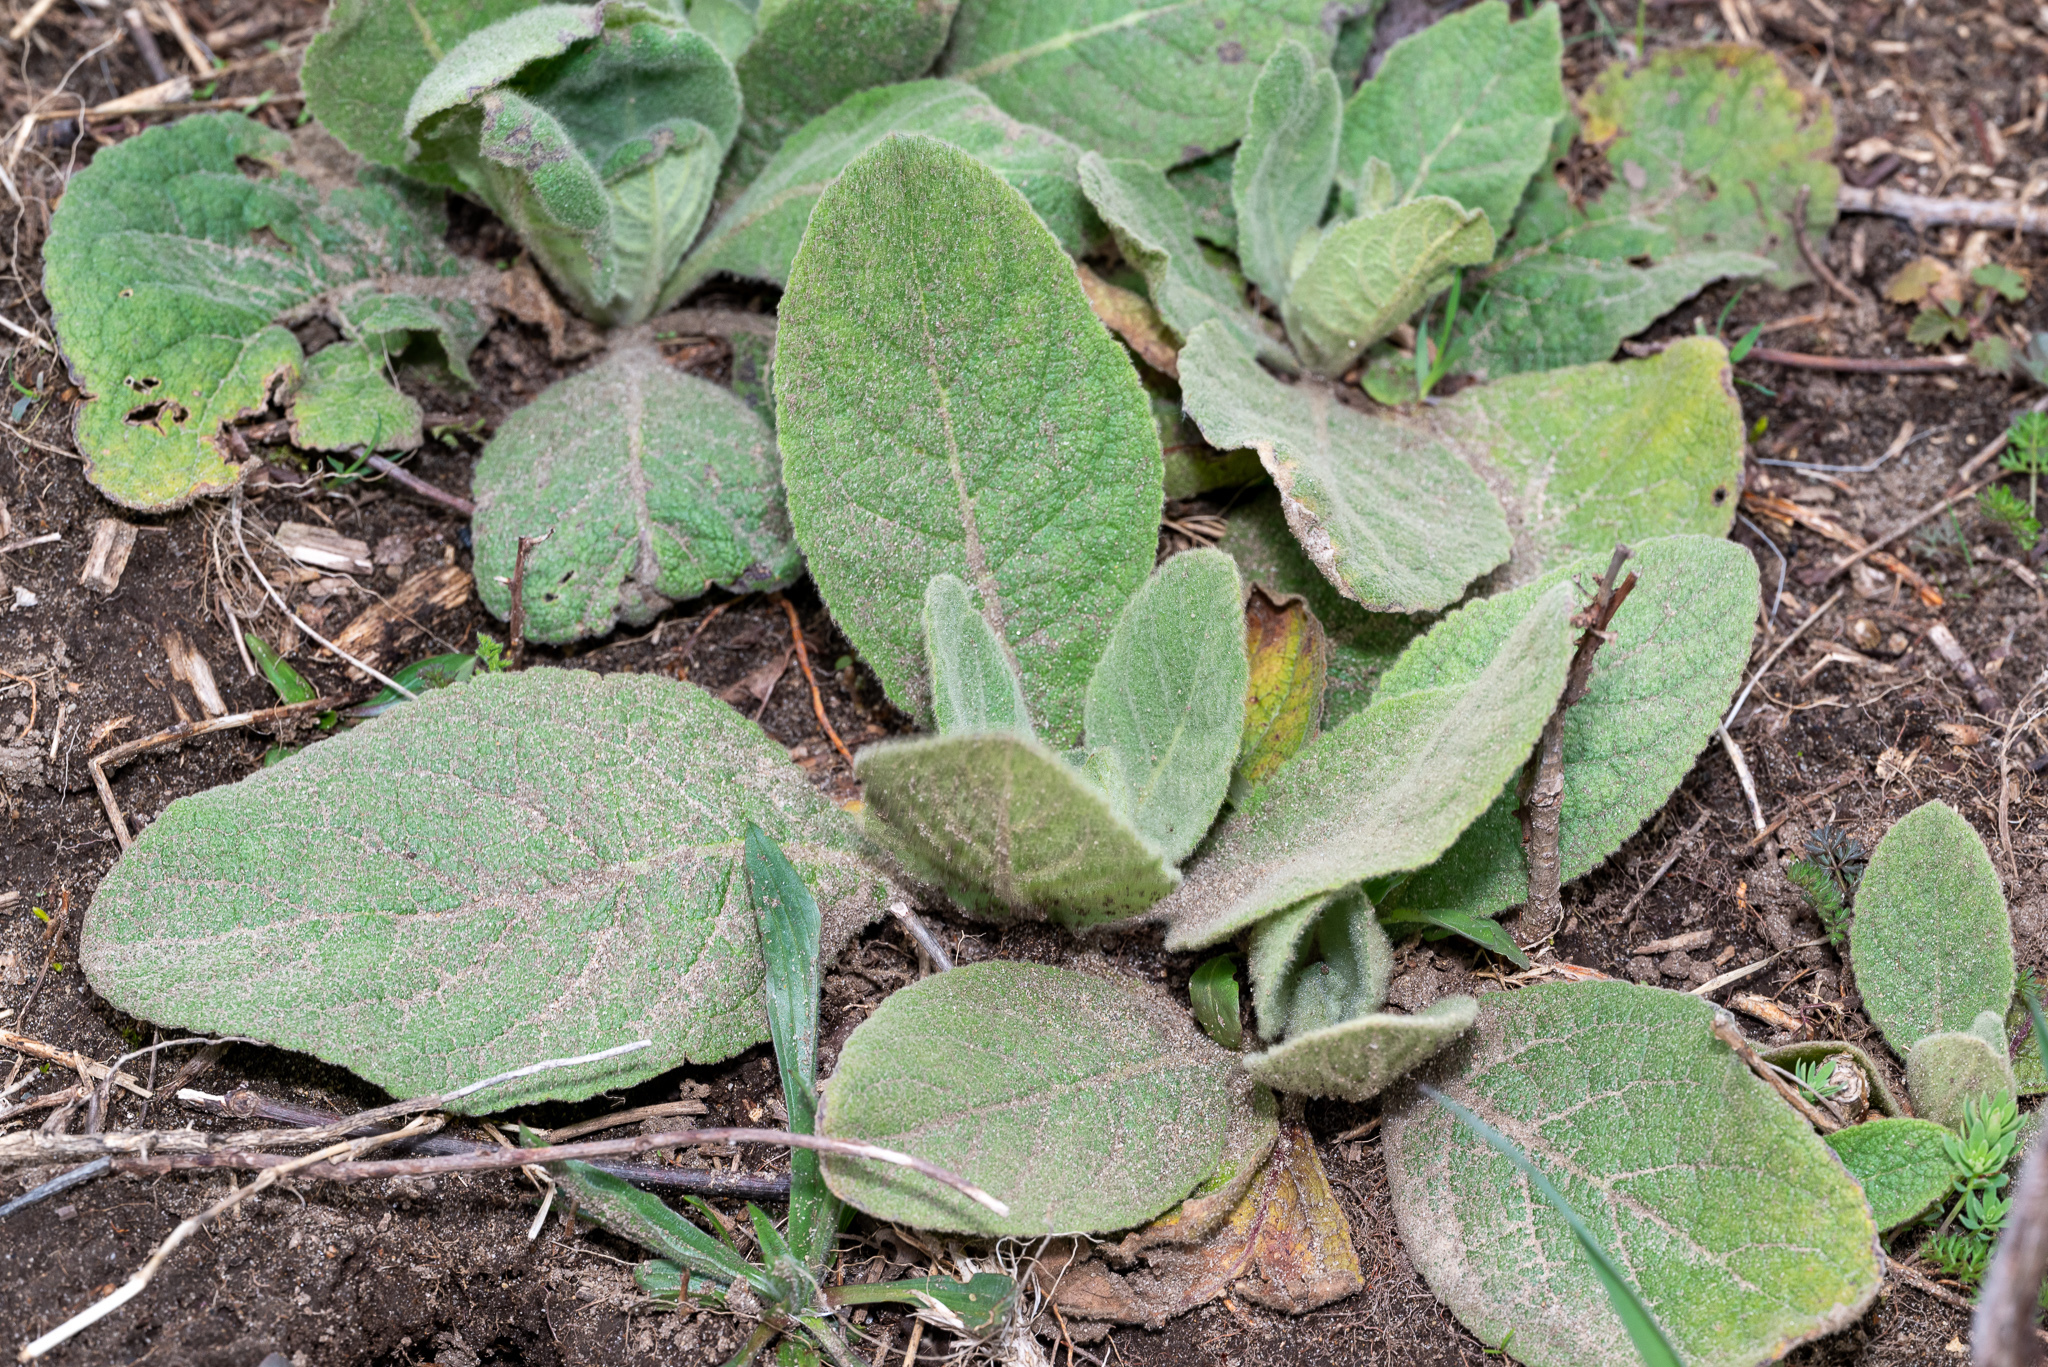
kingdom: Plantae
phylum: Tracheophyta
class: Magnoliopsida
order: Lamiales
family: Scrophulariaceae
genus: Verbascum
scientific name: Verbascum thapsus
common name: Common mullein
